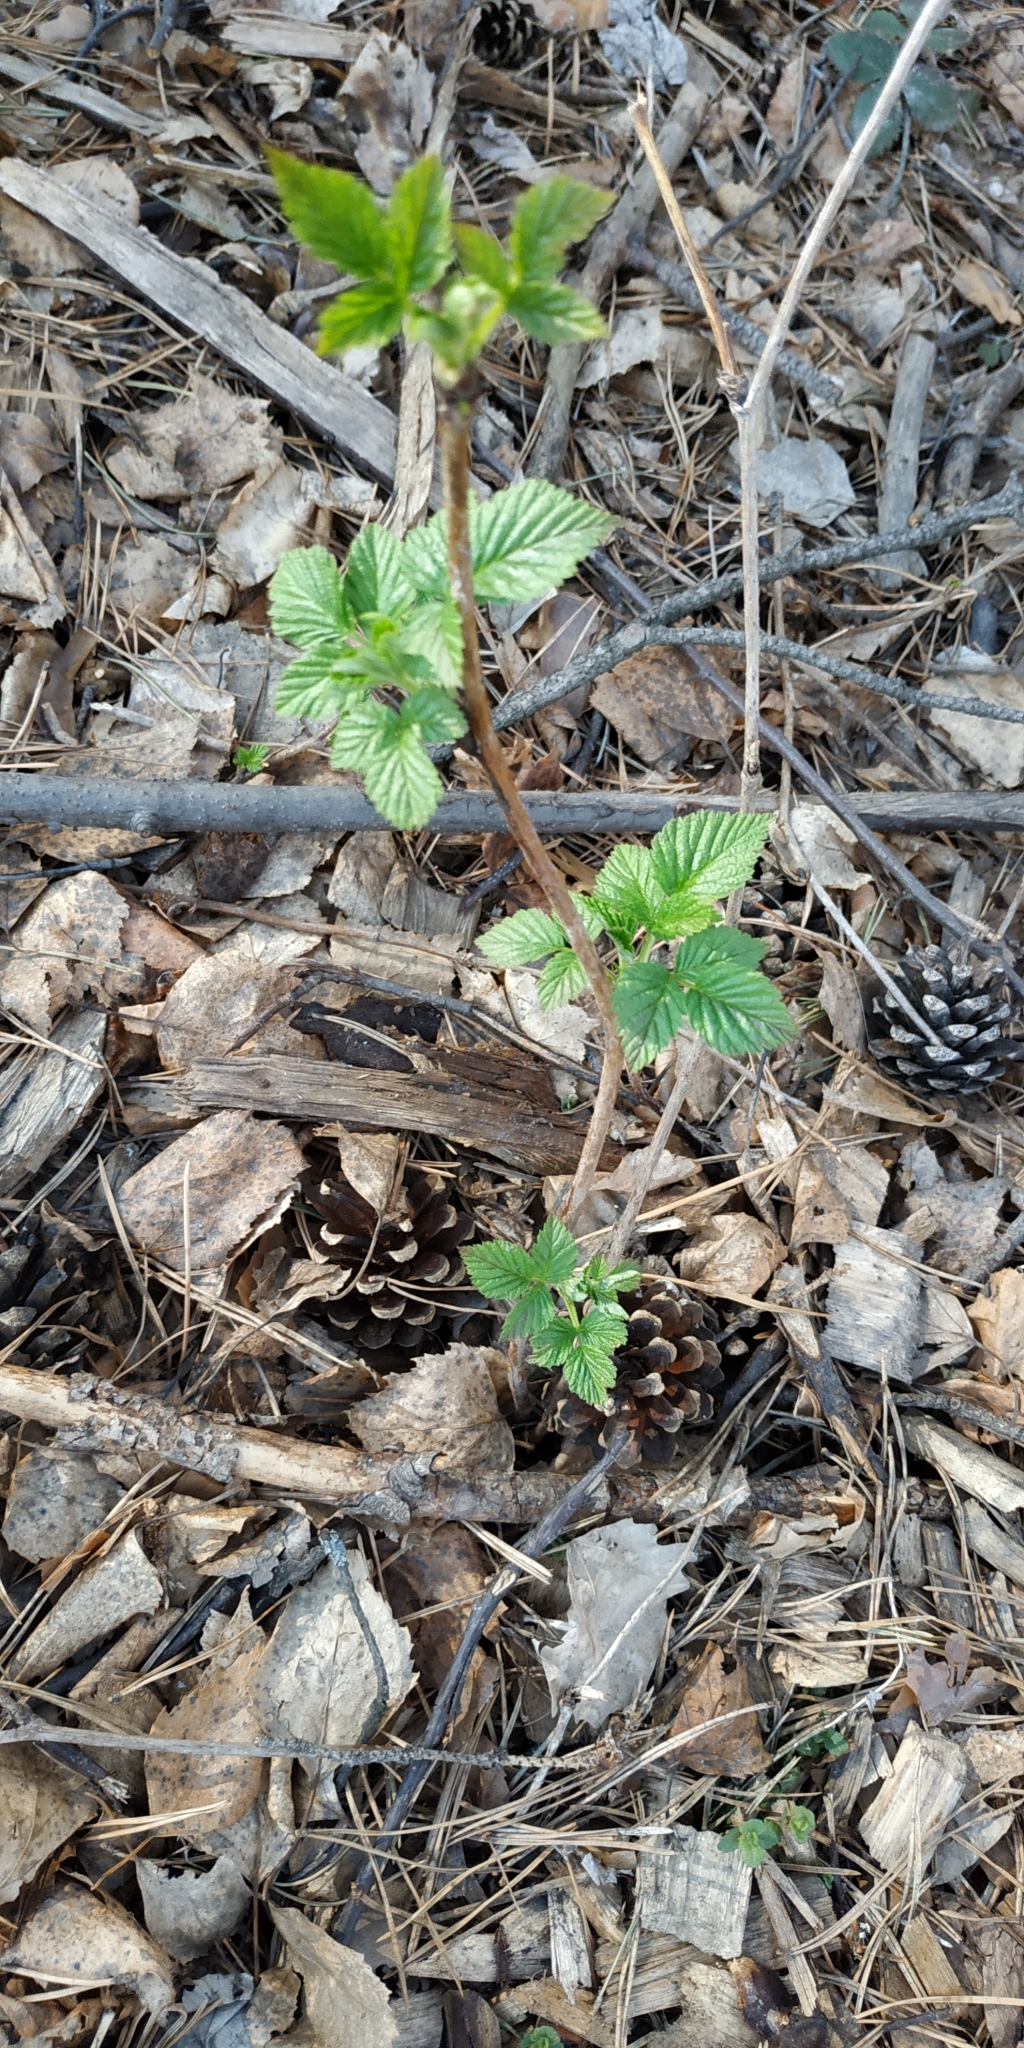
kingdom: Plantae
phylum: Tracheophyta
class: Magnoliopsida
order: Rosales
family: Rosaceae
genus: Rubus
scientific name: Rubus idaeus
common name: Raspberry
